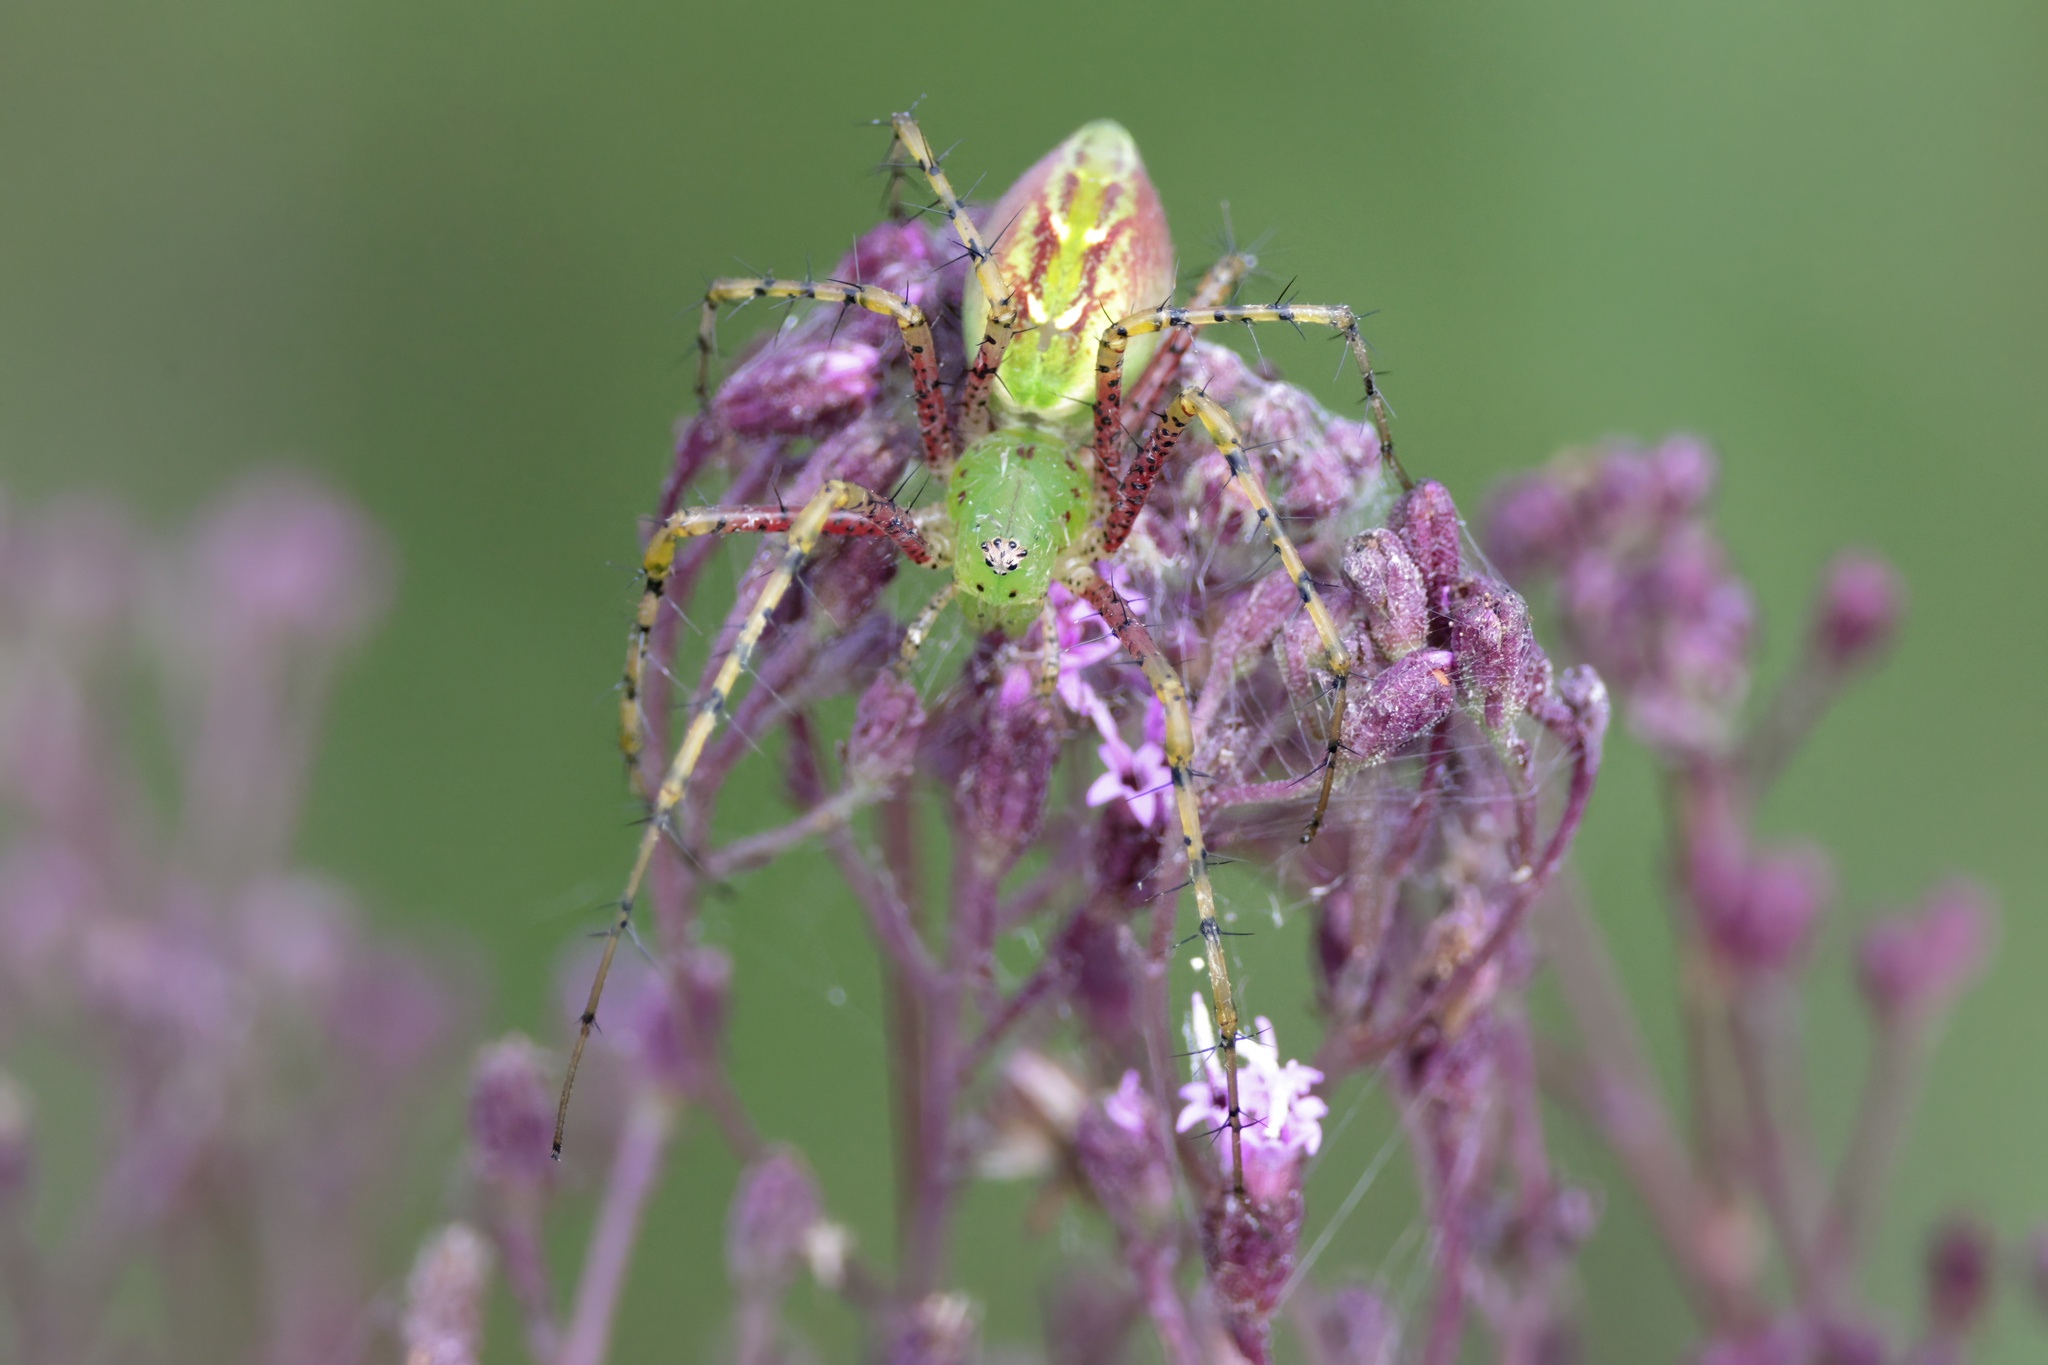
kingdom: Animalia
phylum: Arthropoda
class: Arachnida
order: Araneae
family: Oxyopidae
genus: Peucetia
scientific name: Peucetia viridans
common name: Lynx spiders
